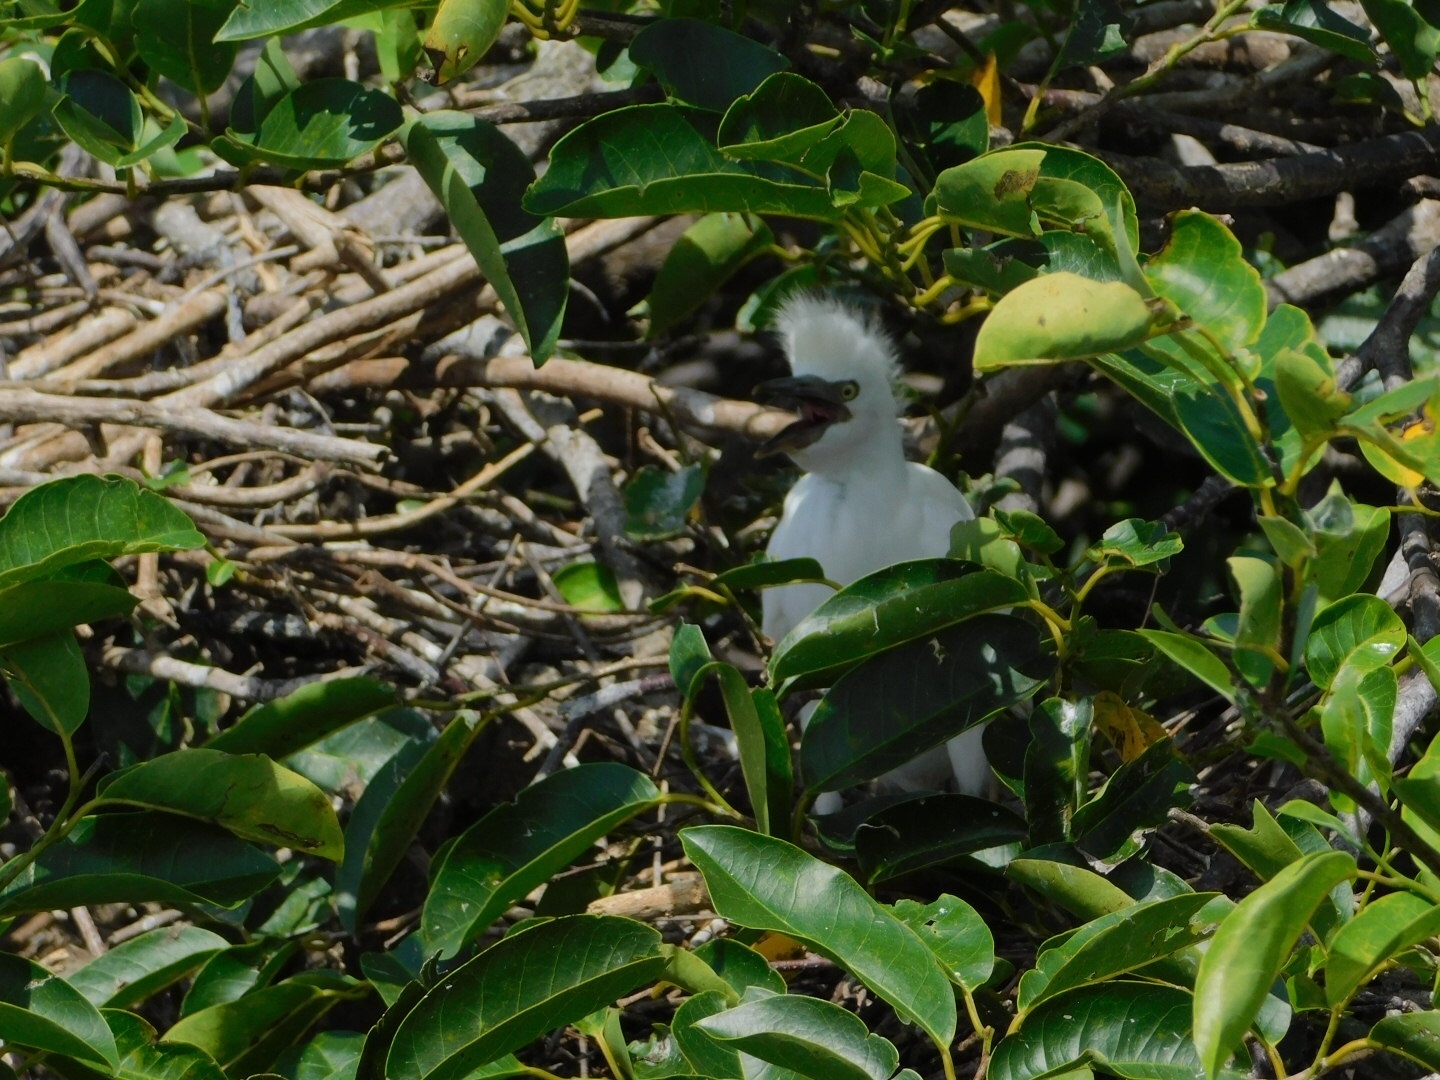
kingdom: Animalia
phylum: Chordata
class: Aves
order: Pelecaniformes
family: Ardeidae
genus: Egretta
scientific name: Egretta thula
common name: Snowy egret
